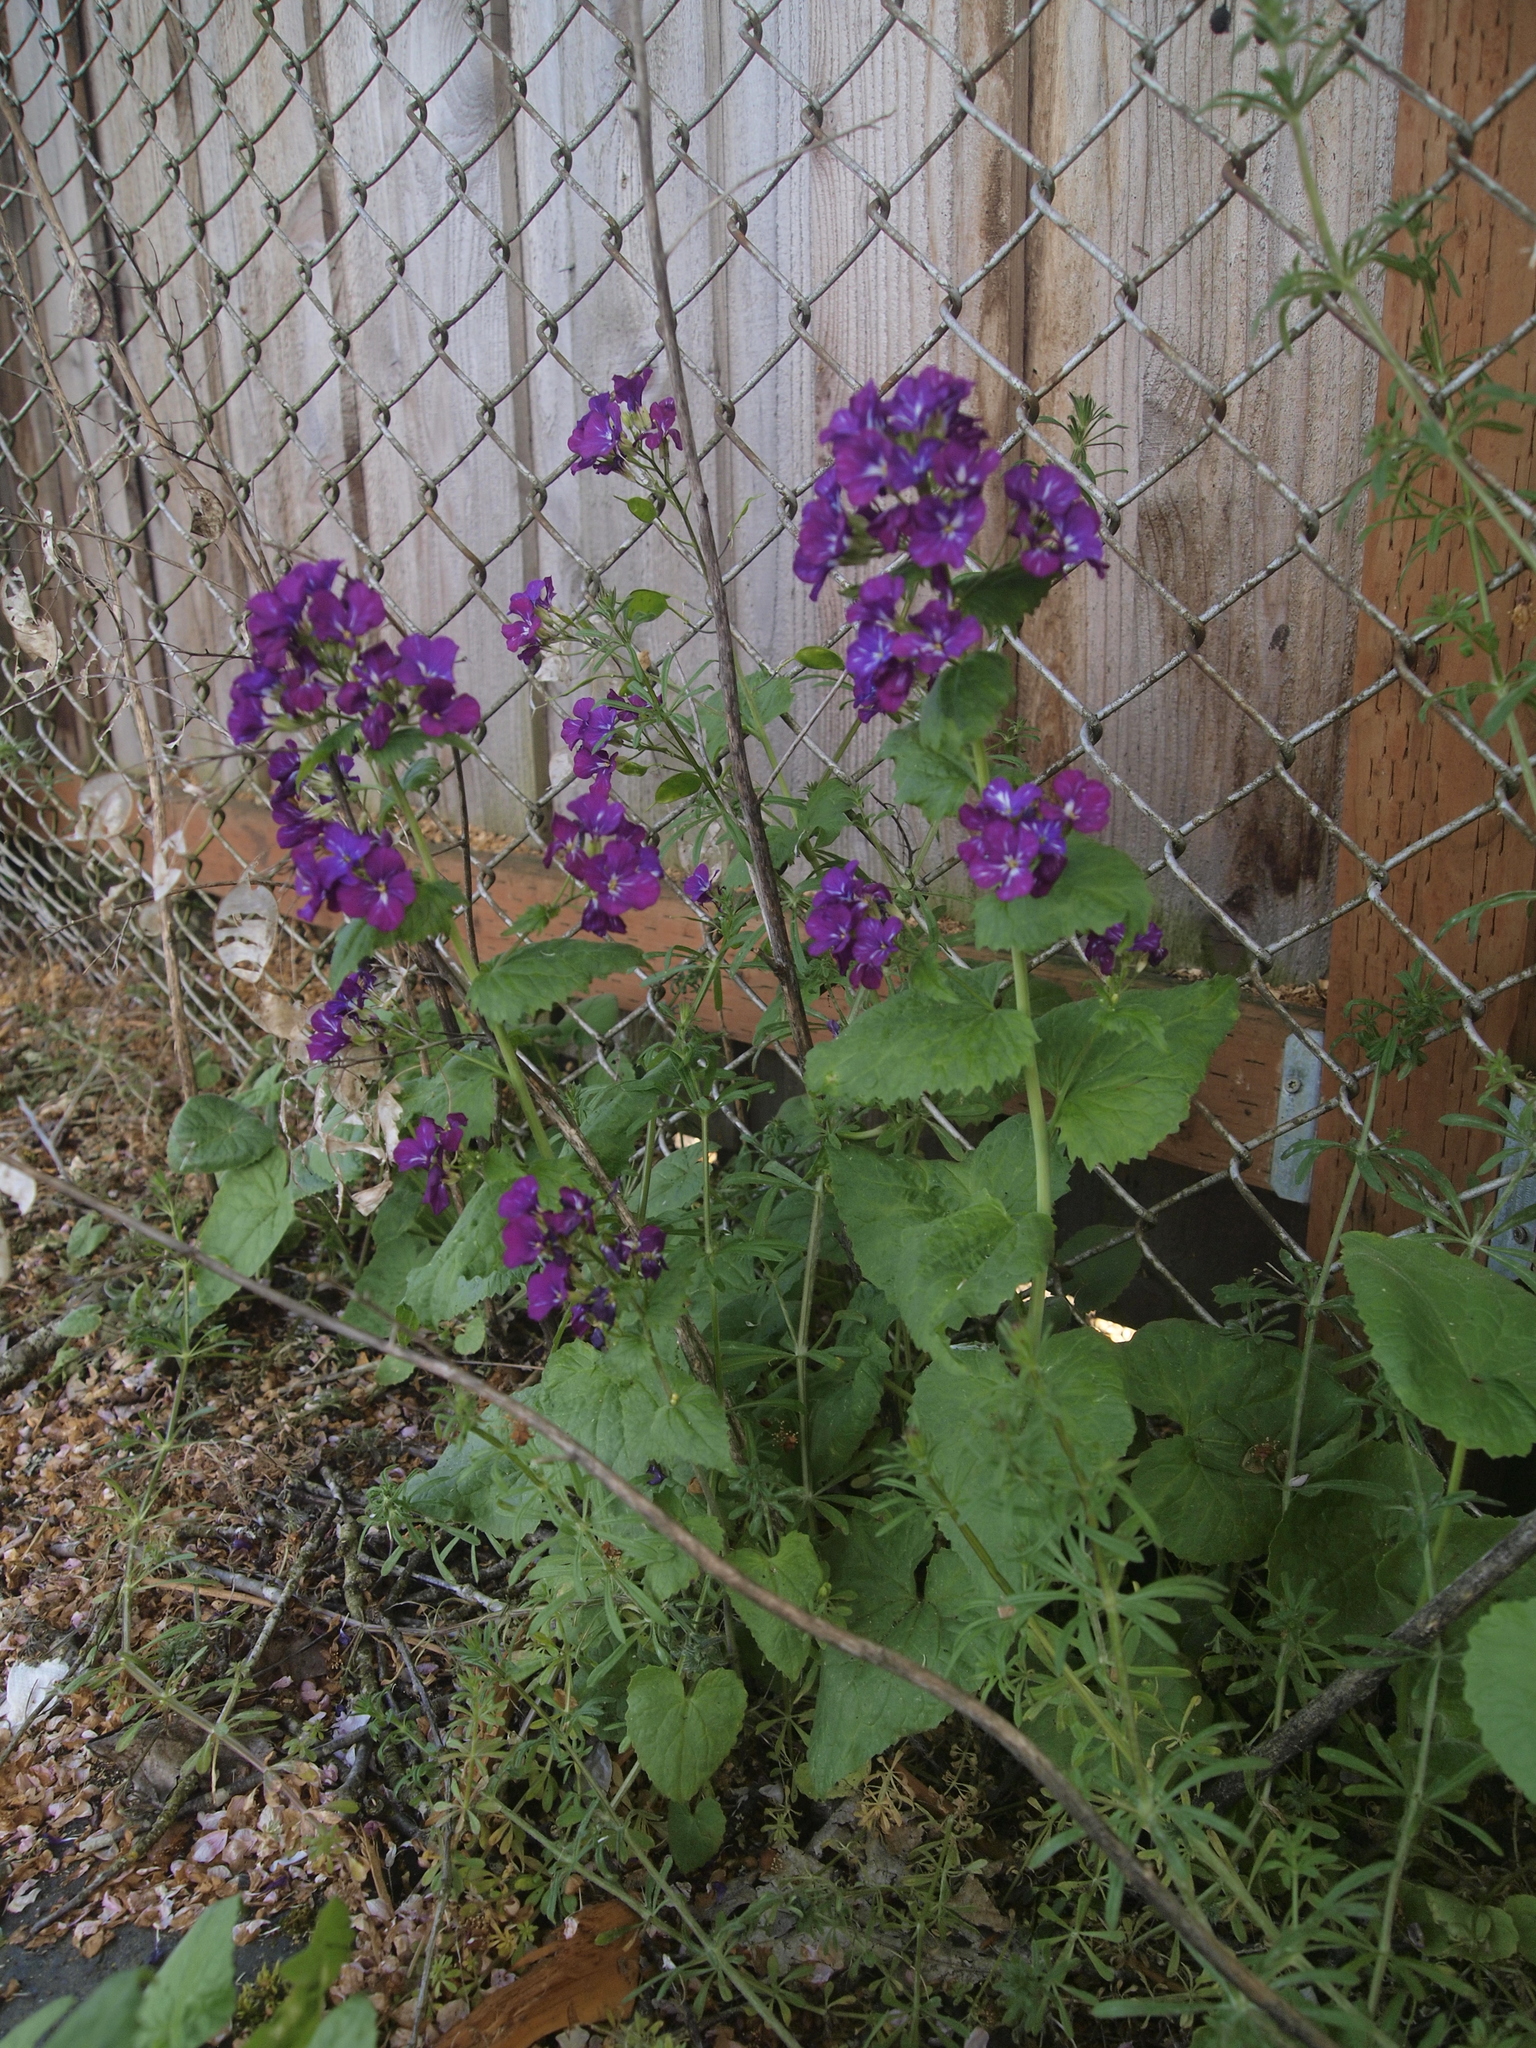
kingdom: Plantae
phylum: Tracheophyta
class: Magnoliopsida
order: Brassicales
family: Brassicaceae
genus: Lunaria
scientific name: Lunaria annua
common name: Honesty
